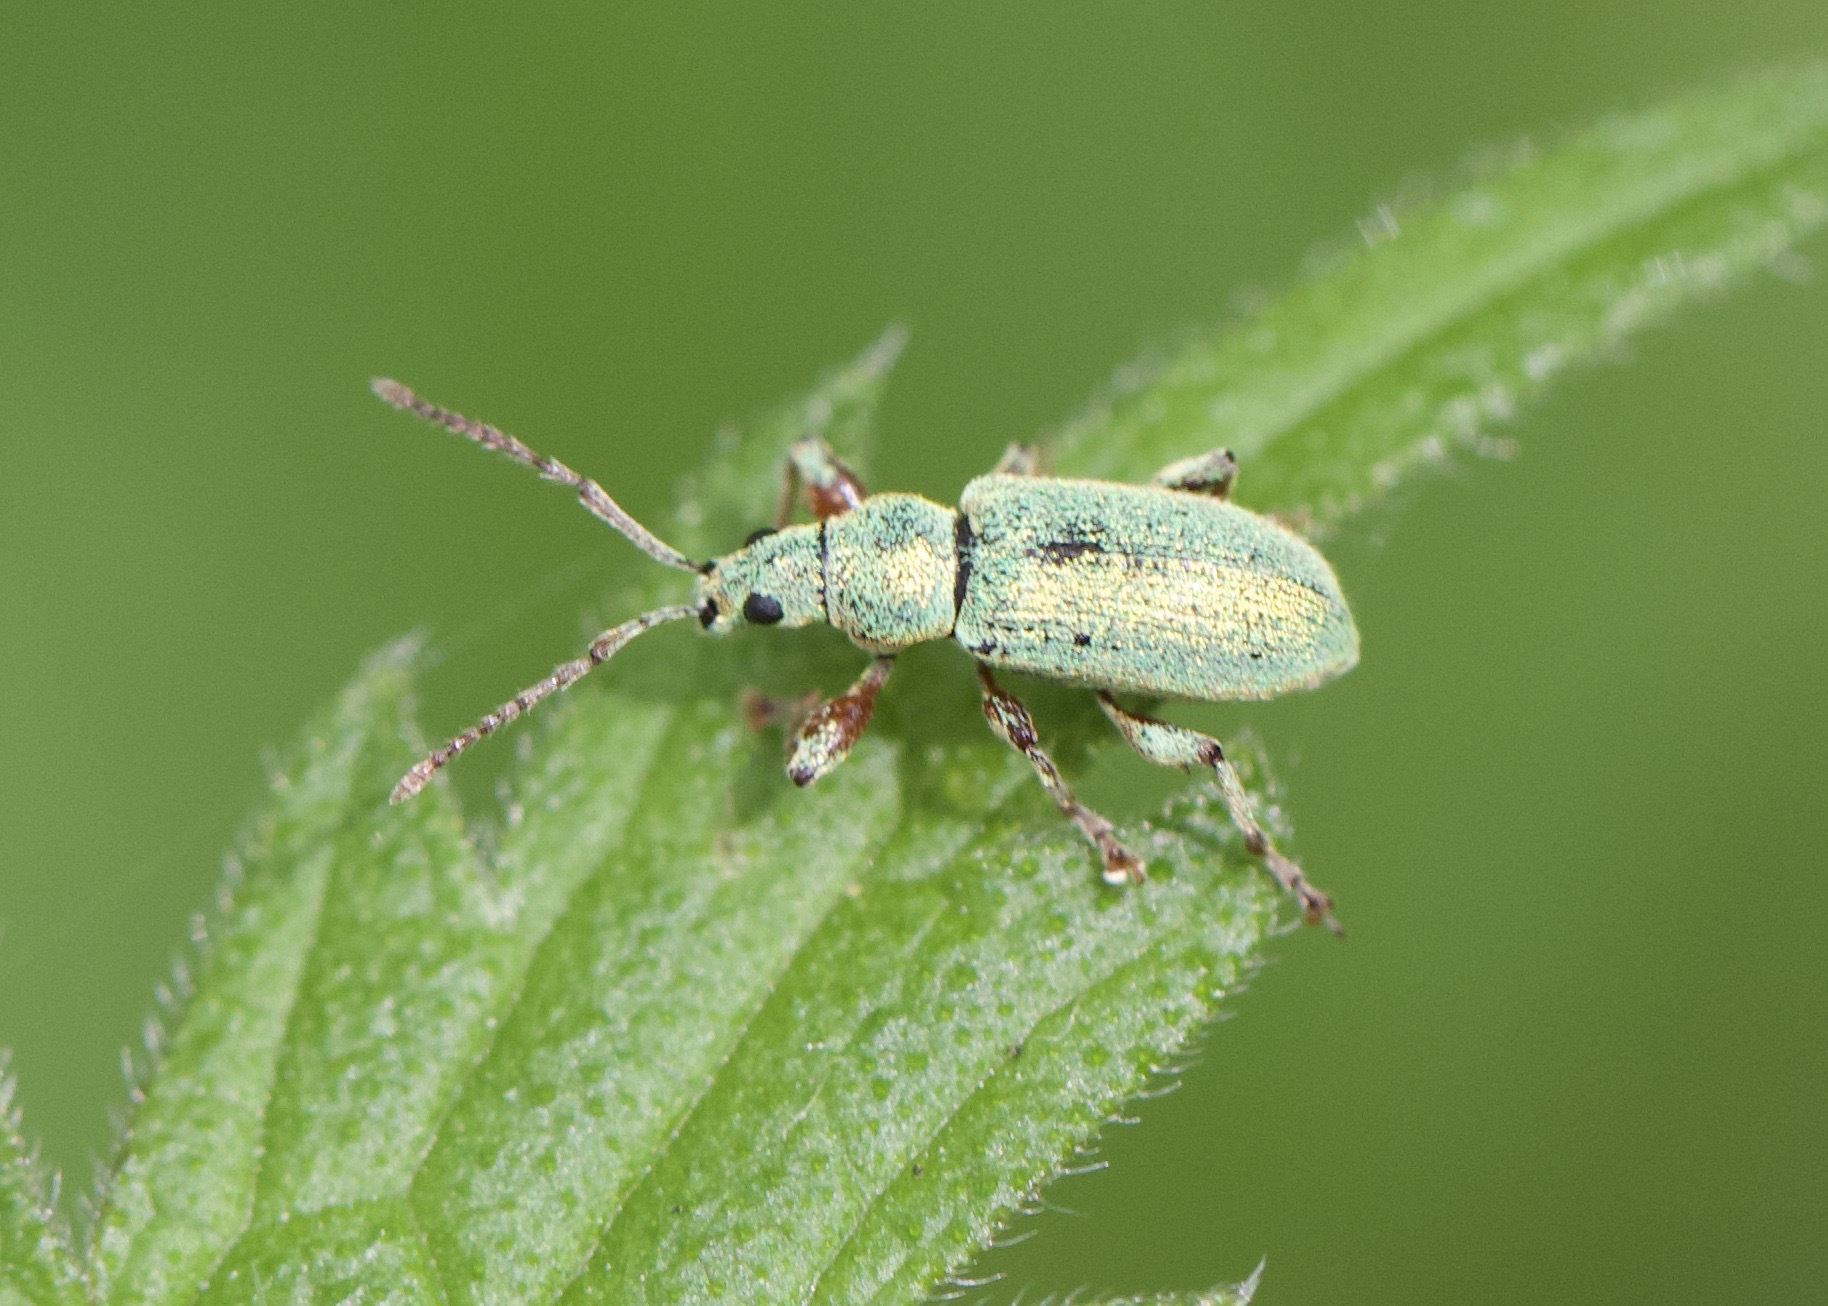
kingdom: Animalia
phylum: Arthropoda
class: Insecta
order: Coleoptera
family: Curculionidae
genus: Phyllobius
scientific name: Phyllobius argentatus
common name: Silver-green leaf weevil
